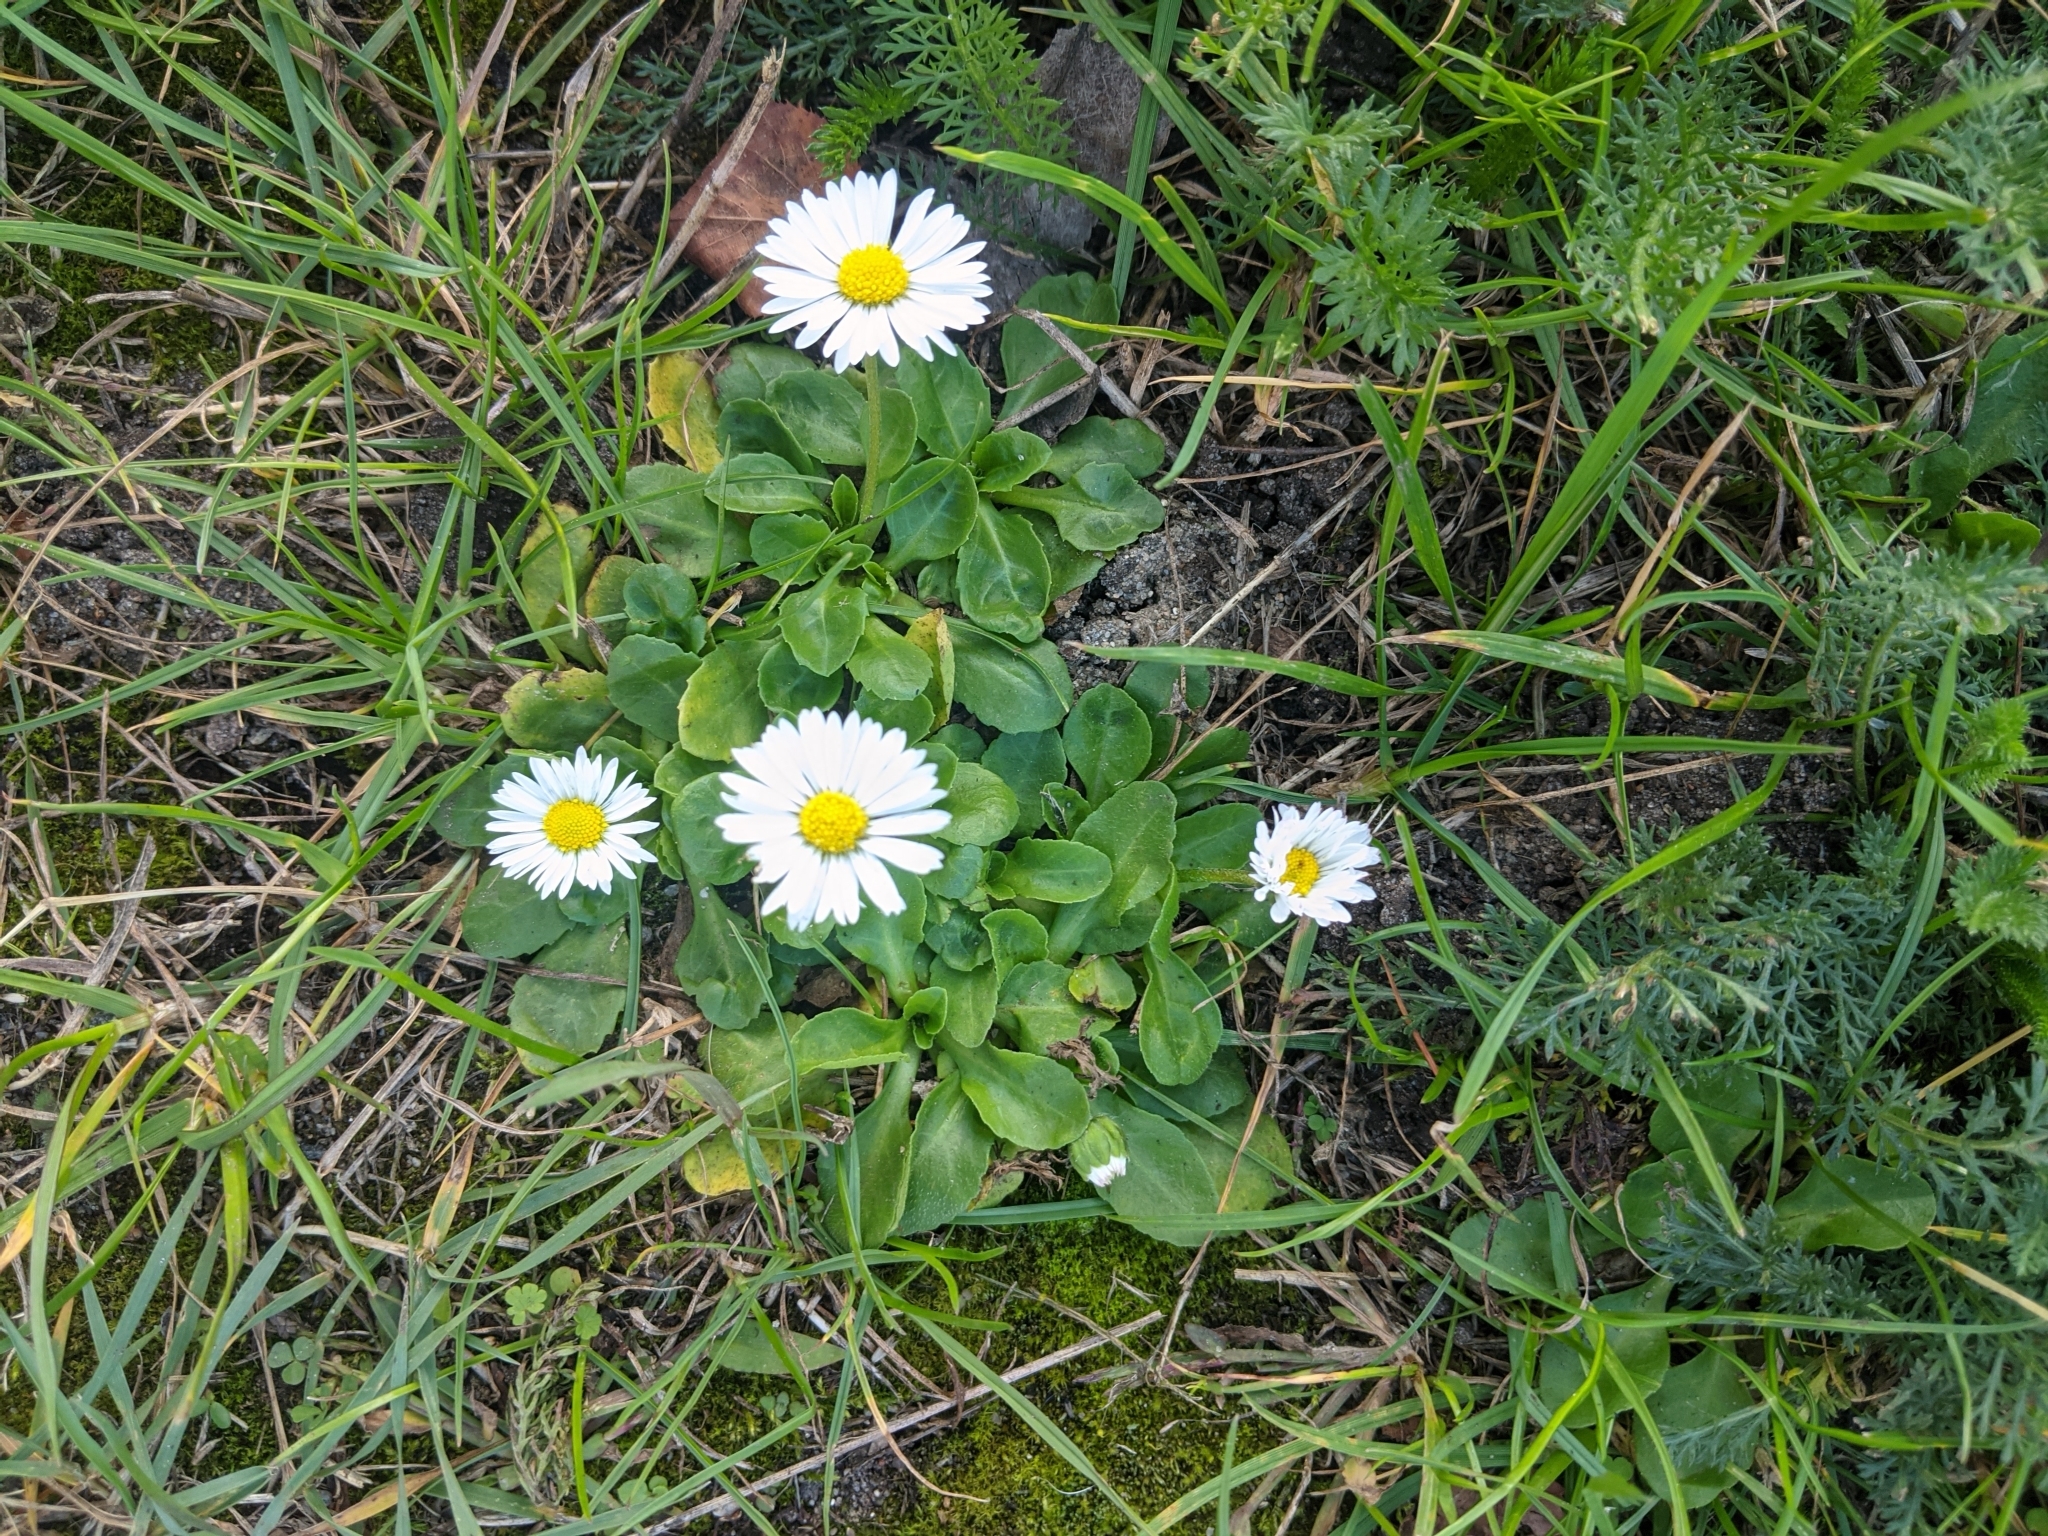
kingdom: Plantae
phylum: Tracheophyta
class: Magnoliopsida
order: Asterales
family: Asteraceae
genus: Bellis
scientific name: Bellis perennis
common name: Lawndaisy
